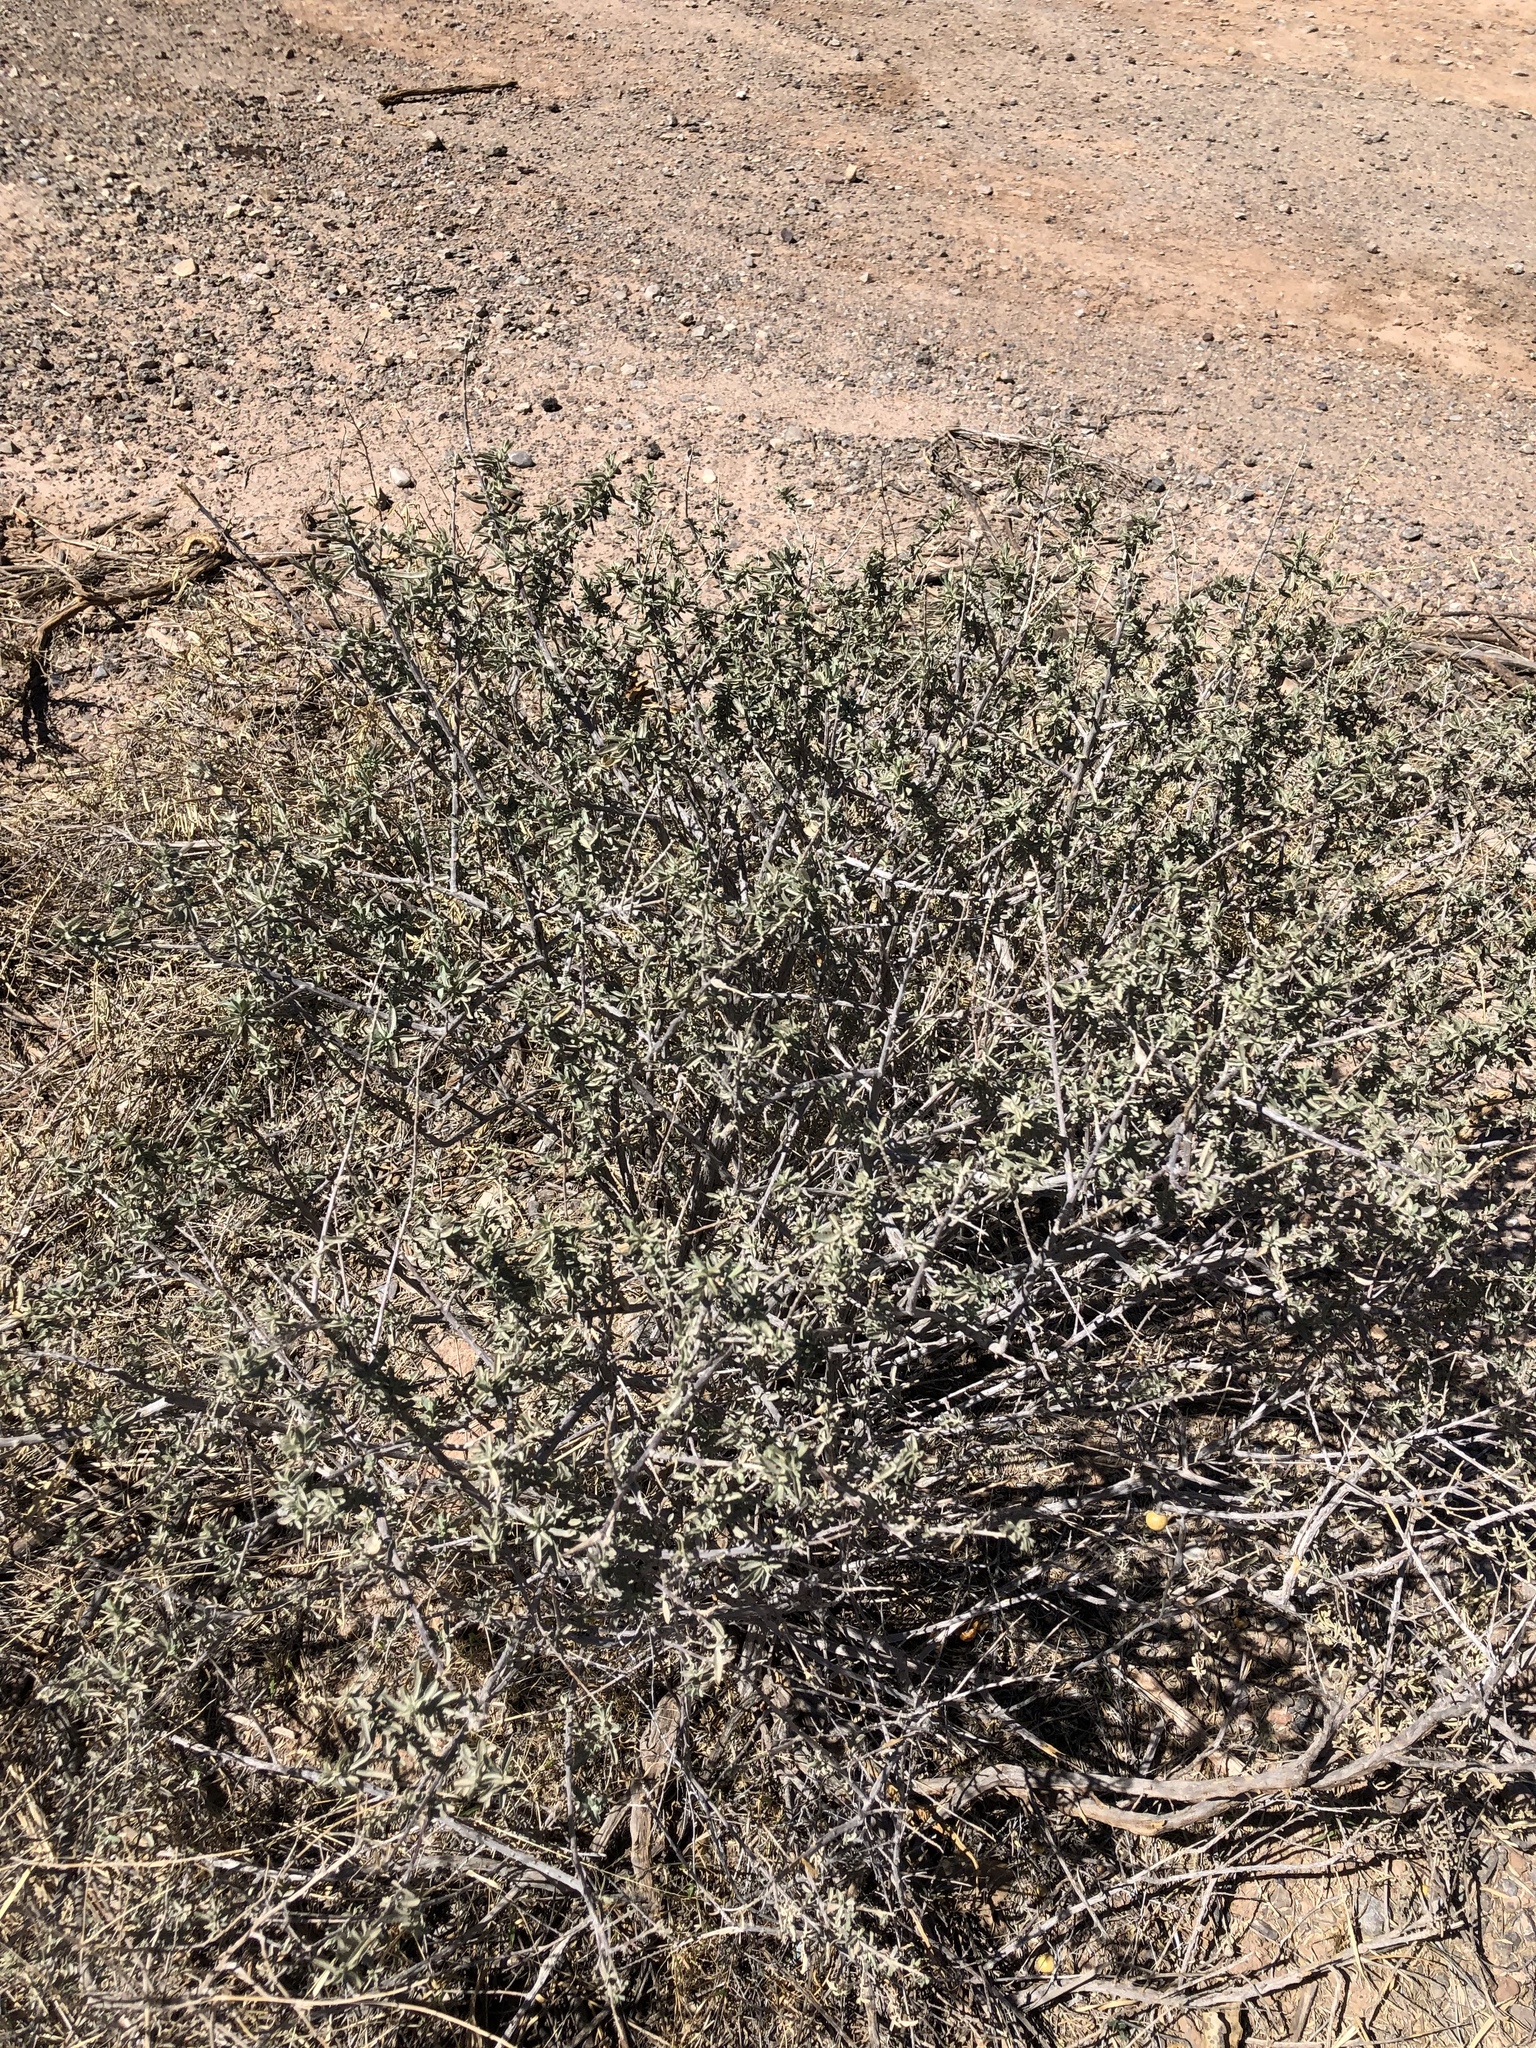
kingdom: Plantae
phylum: Tracheophyta
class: Magnoliopsida
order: Caryophyllales
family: Amaranthaceae
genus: Atriplex
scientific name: Atriplex canescens
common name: Four-wing saltbush
